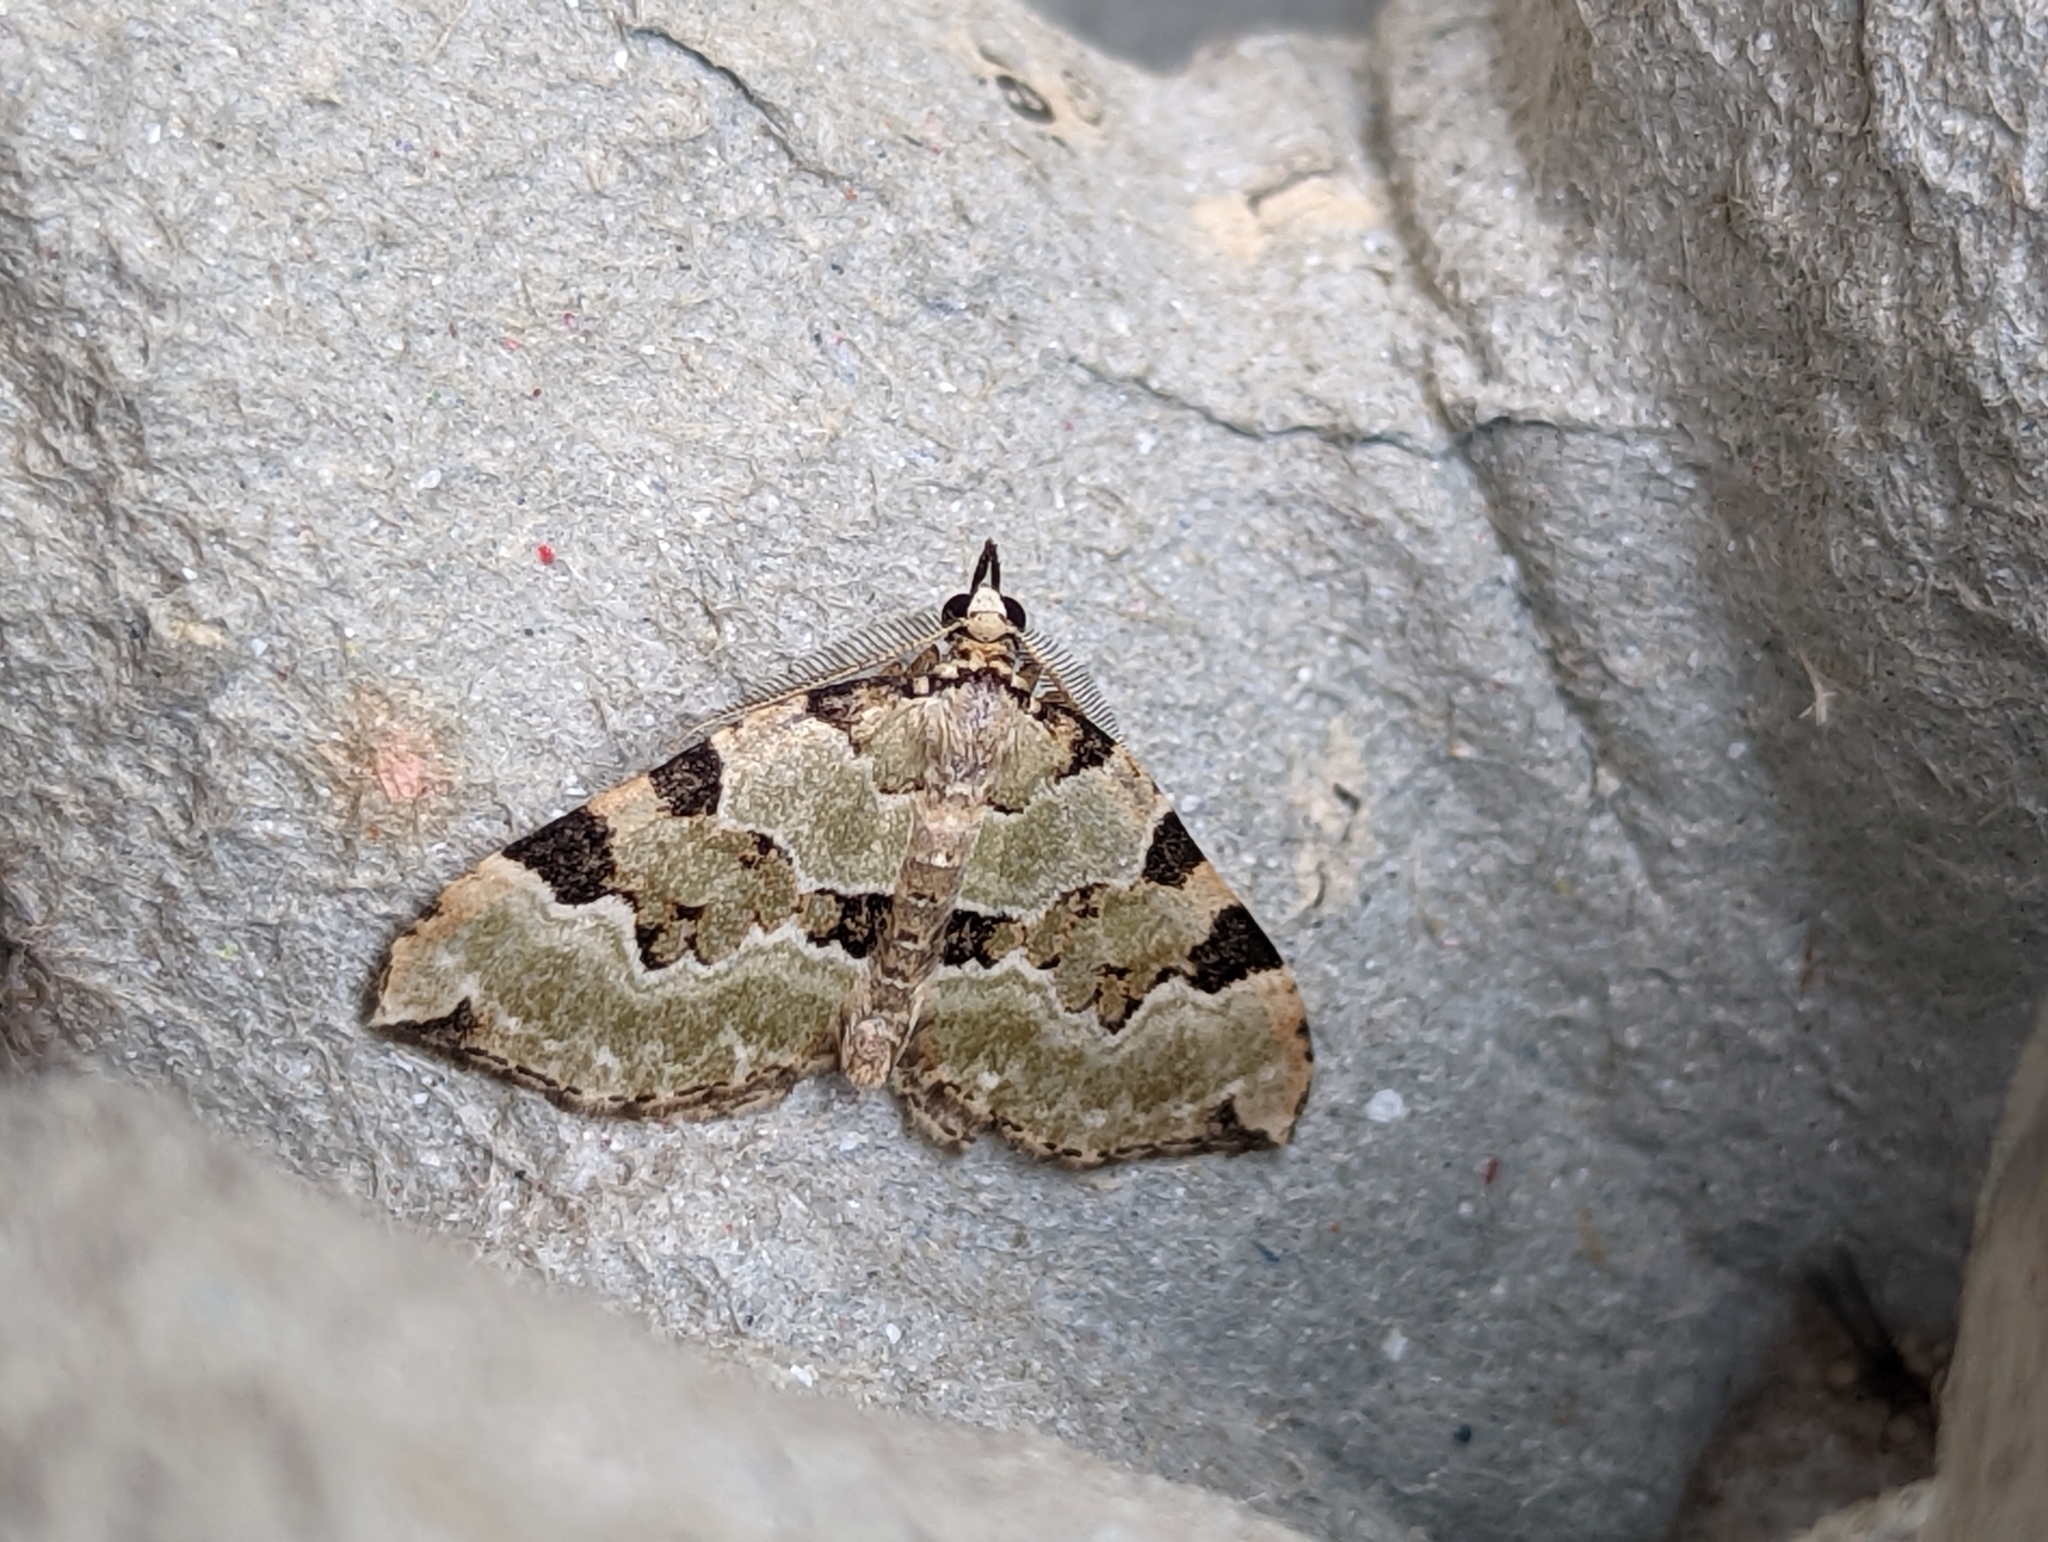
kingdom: Animalia
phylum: Arthropoda
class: Insecta
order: Lepidoptera
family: Geometridae
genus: Colostygia
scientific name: Colostygia pectinataria
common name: Green carpet
